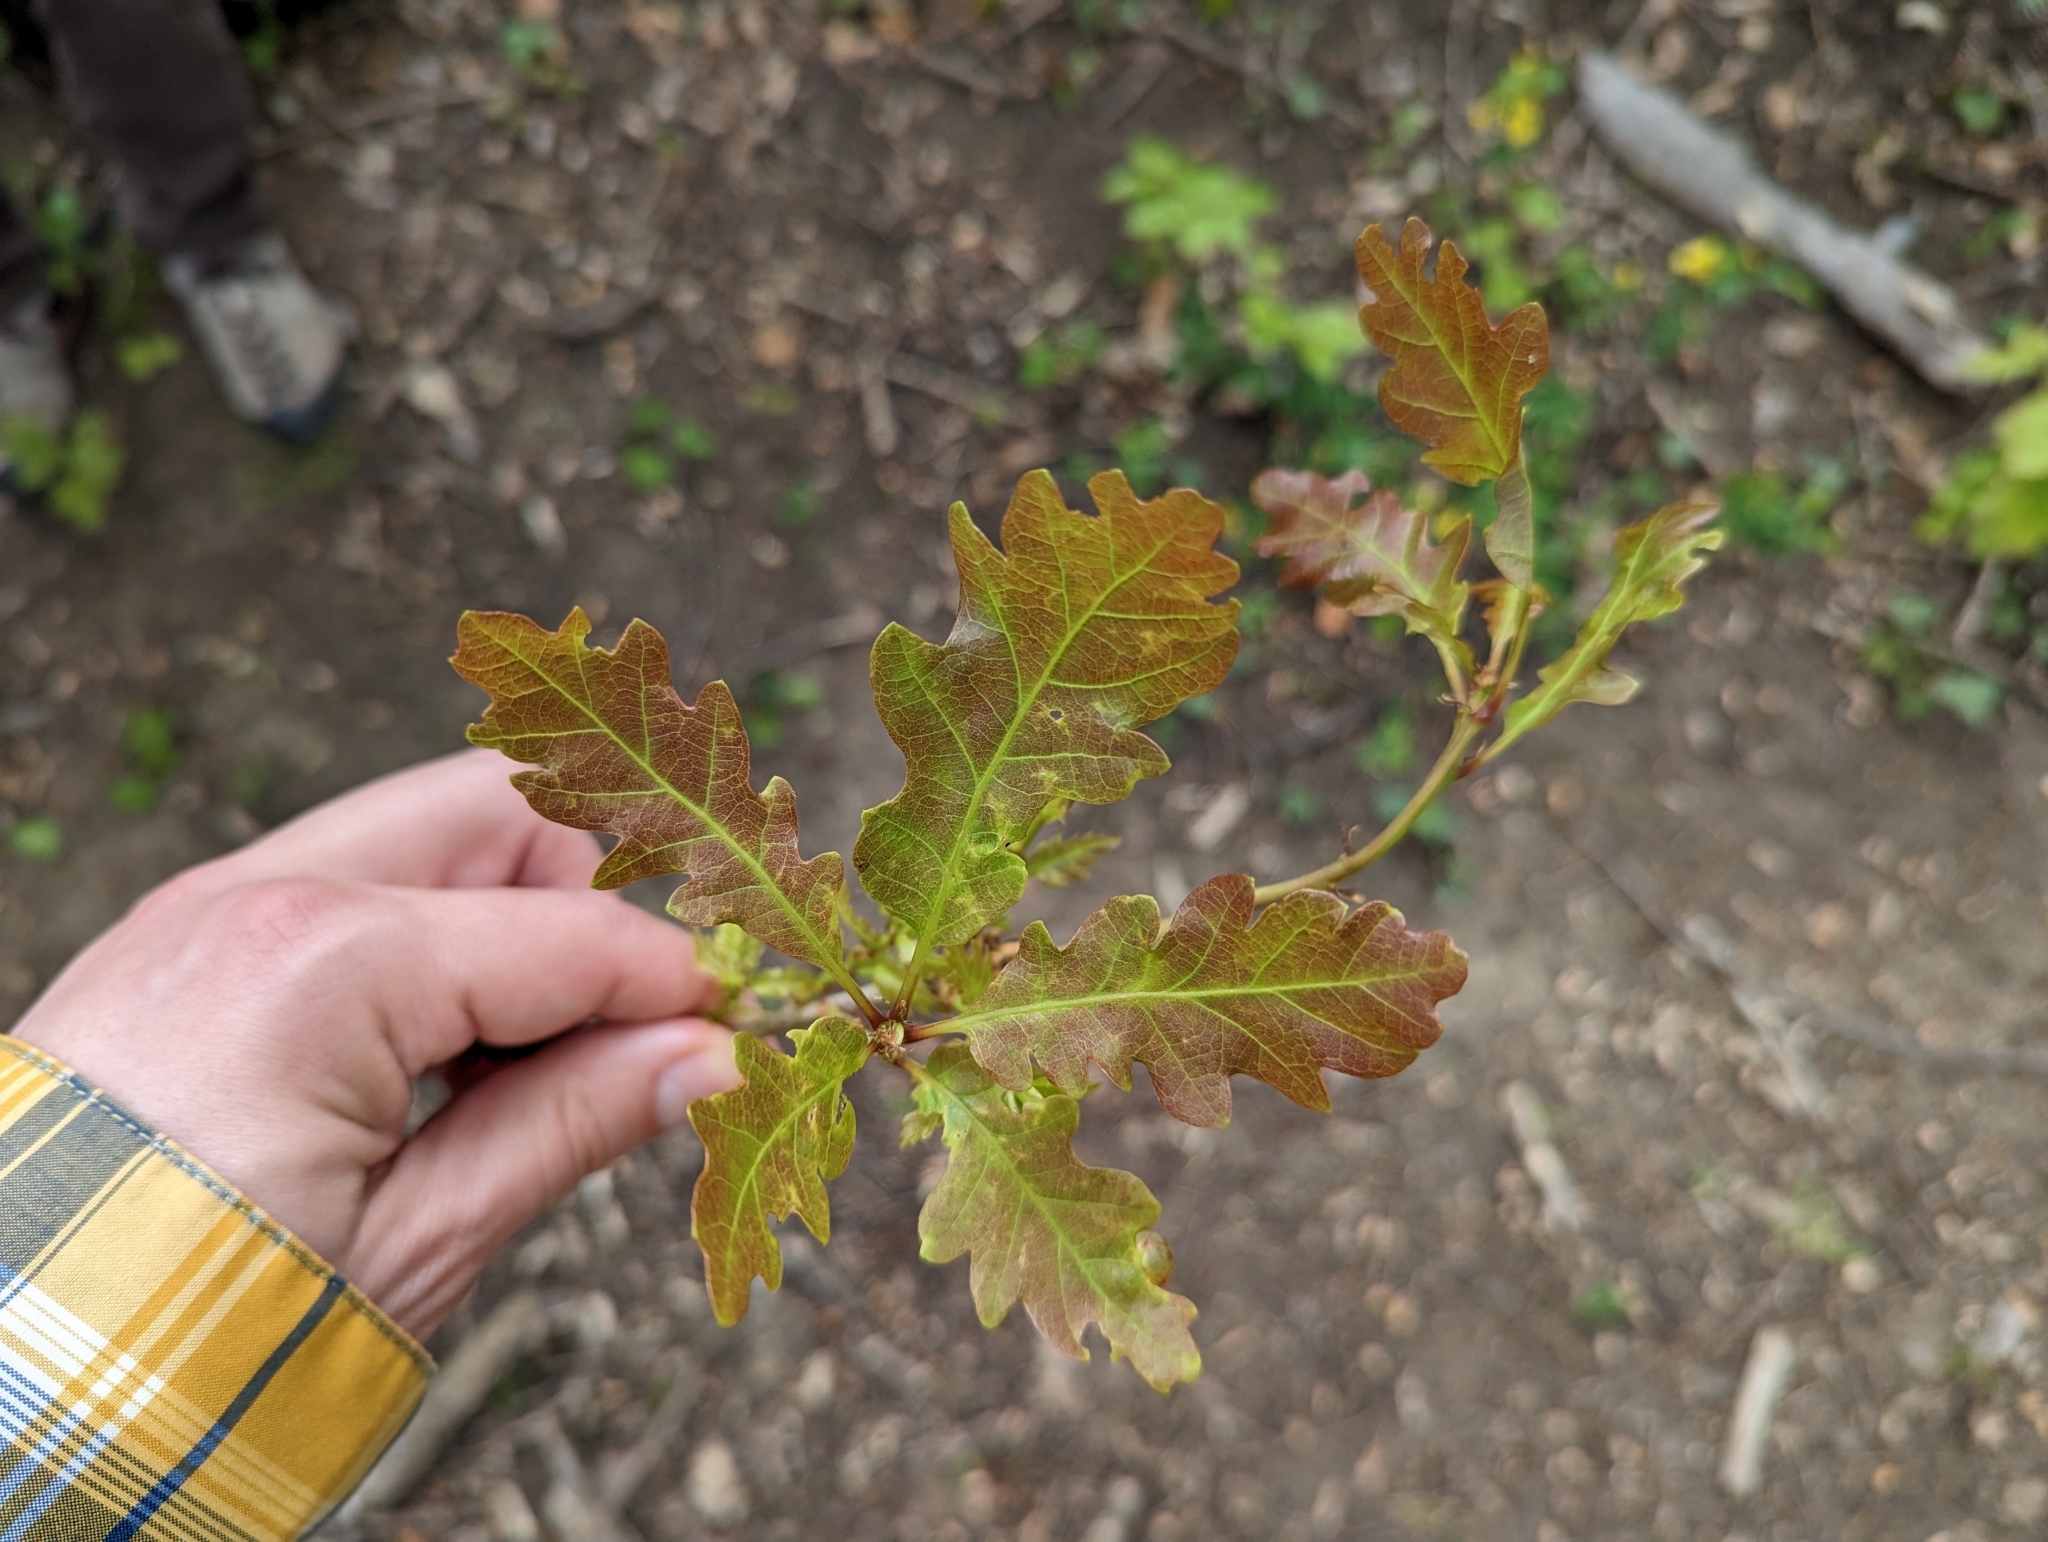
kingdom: Plantae
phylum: Tracheophyta
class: Magnoliopsida
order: Fagales
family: Fagaceae
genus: Quercus
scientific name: Quercus cerris
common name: Turkey oak
